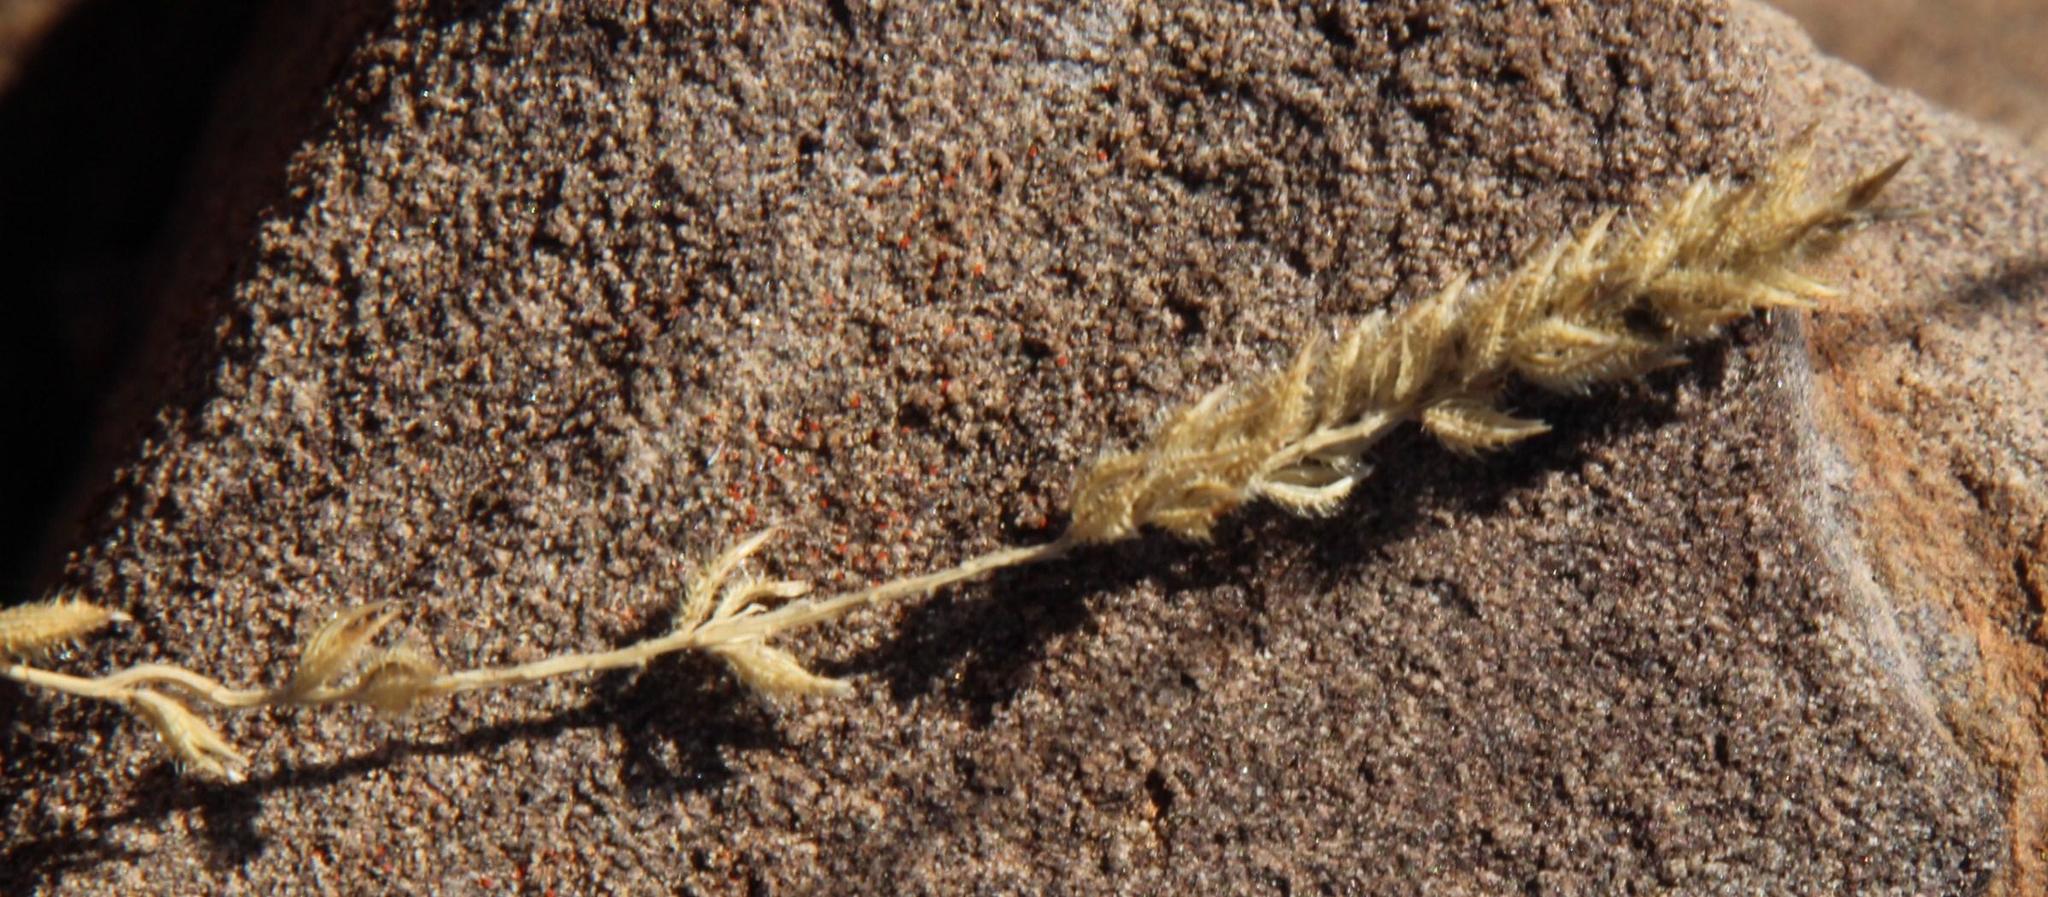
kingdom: Plantae
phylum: Tracheophyta
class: Liliopsida
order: Poales
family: Poaceae
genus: Tragus
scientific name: Tragus koelerioides
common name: Creeping carrot-seed grass
